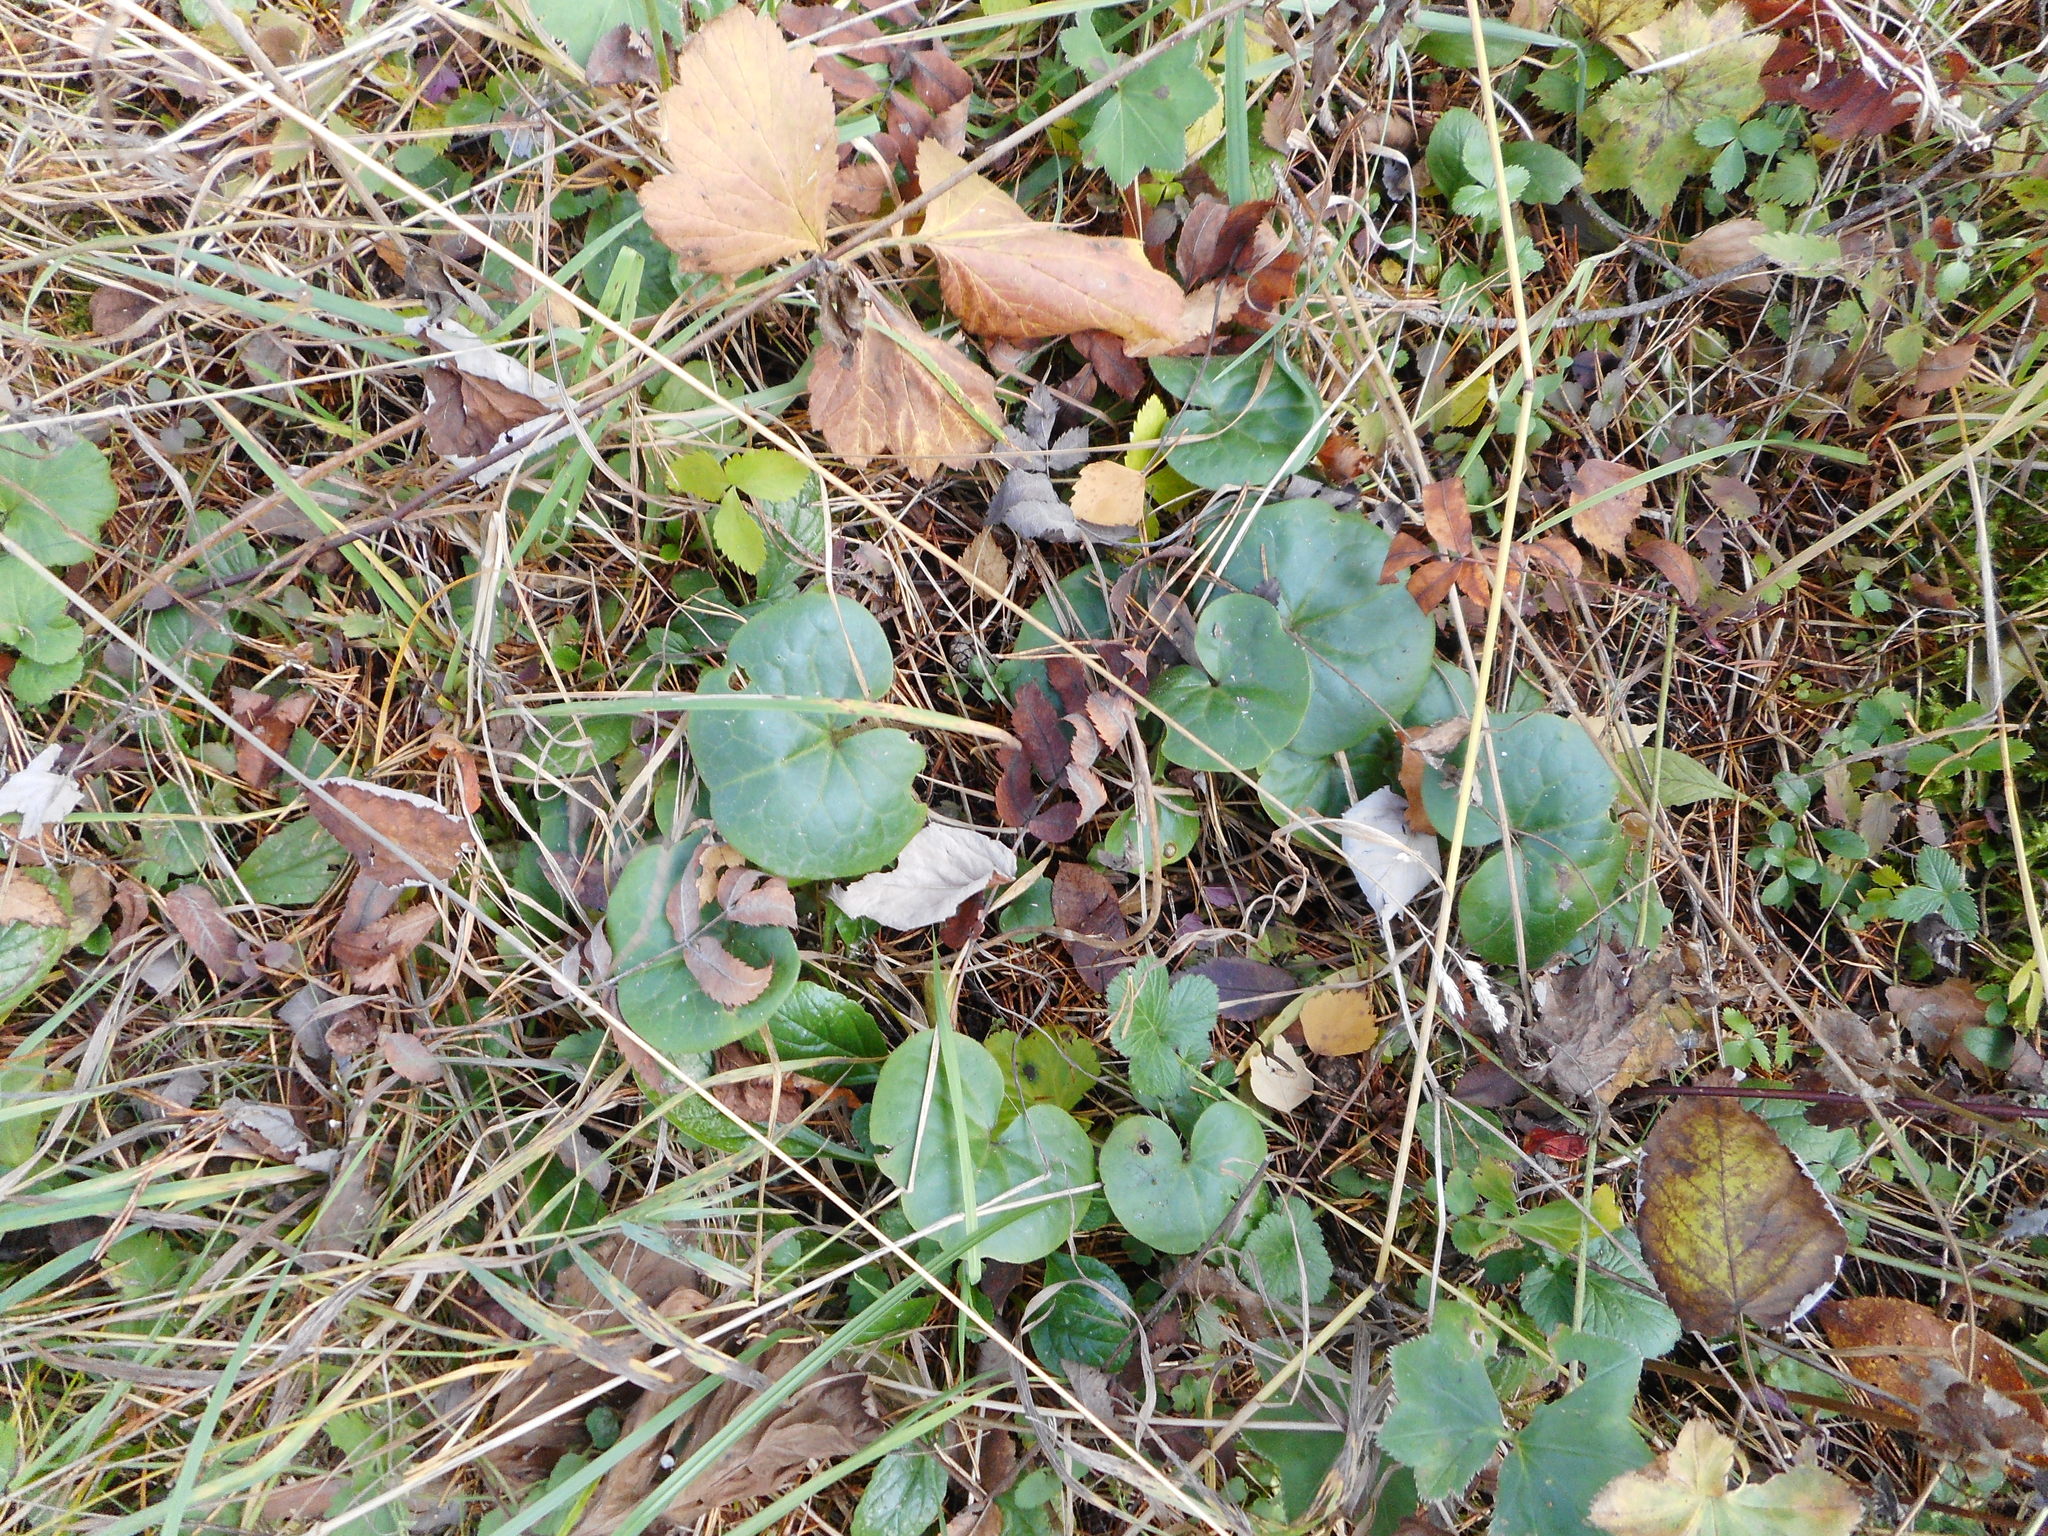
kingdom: Plantae
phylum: Tracheophyta
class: Magnoliopsida
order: Piperales
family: Aristolochiaceae
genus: Asarum
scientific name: Asarum europaeum
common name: Asarabacca
